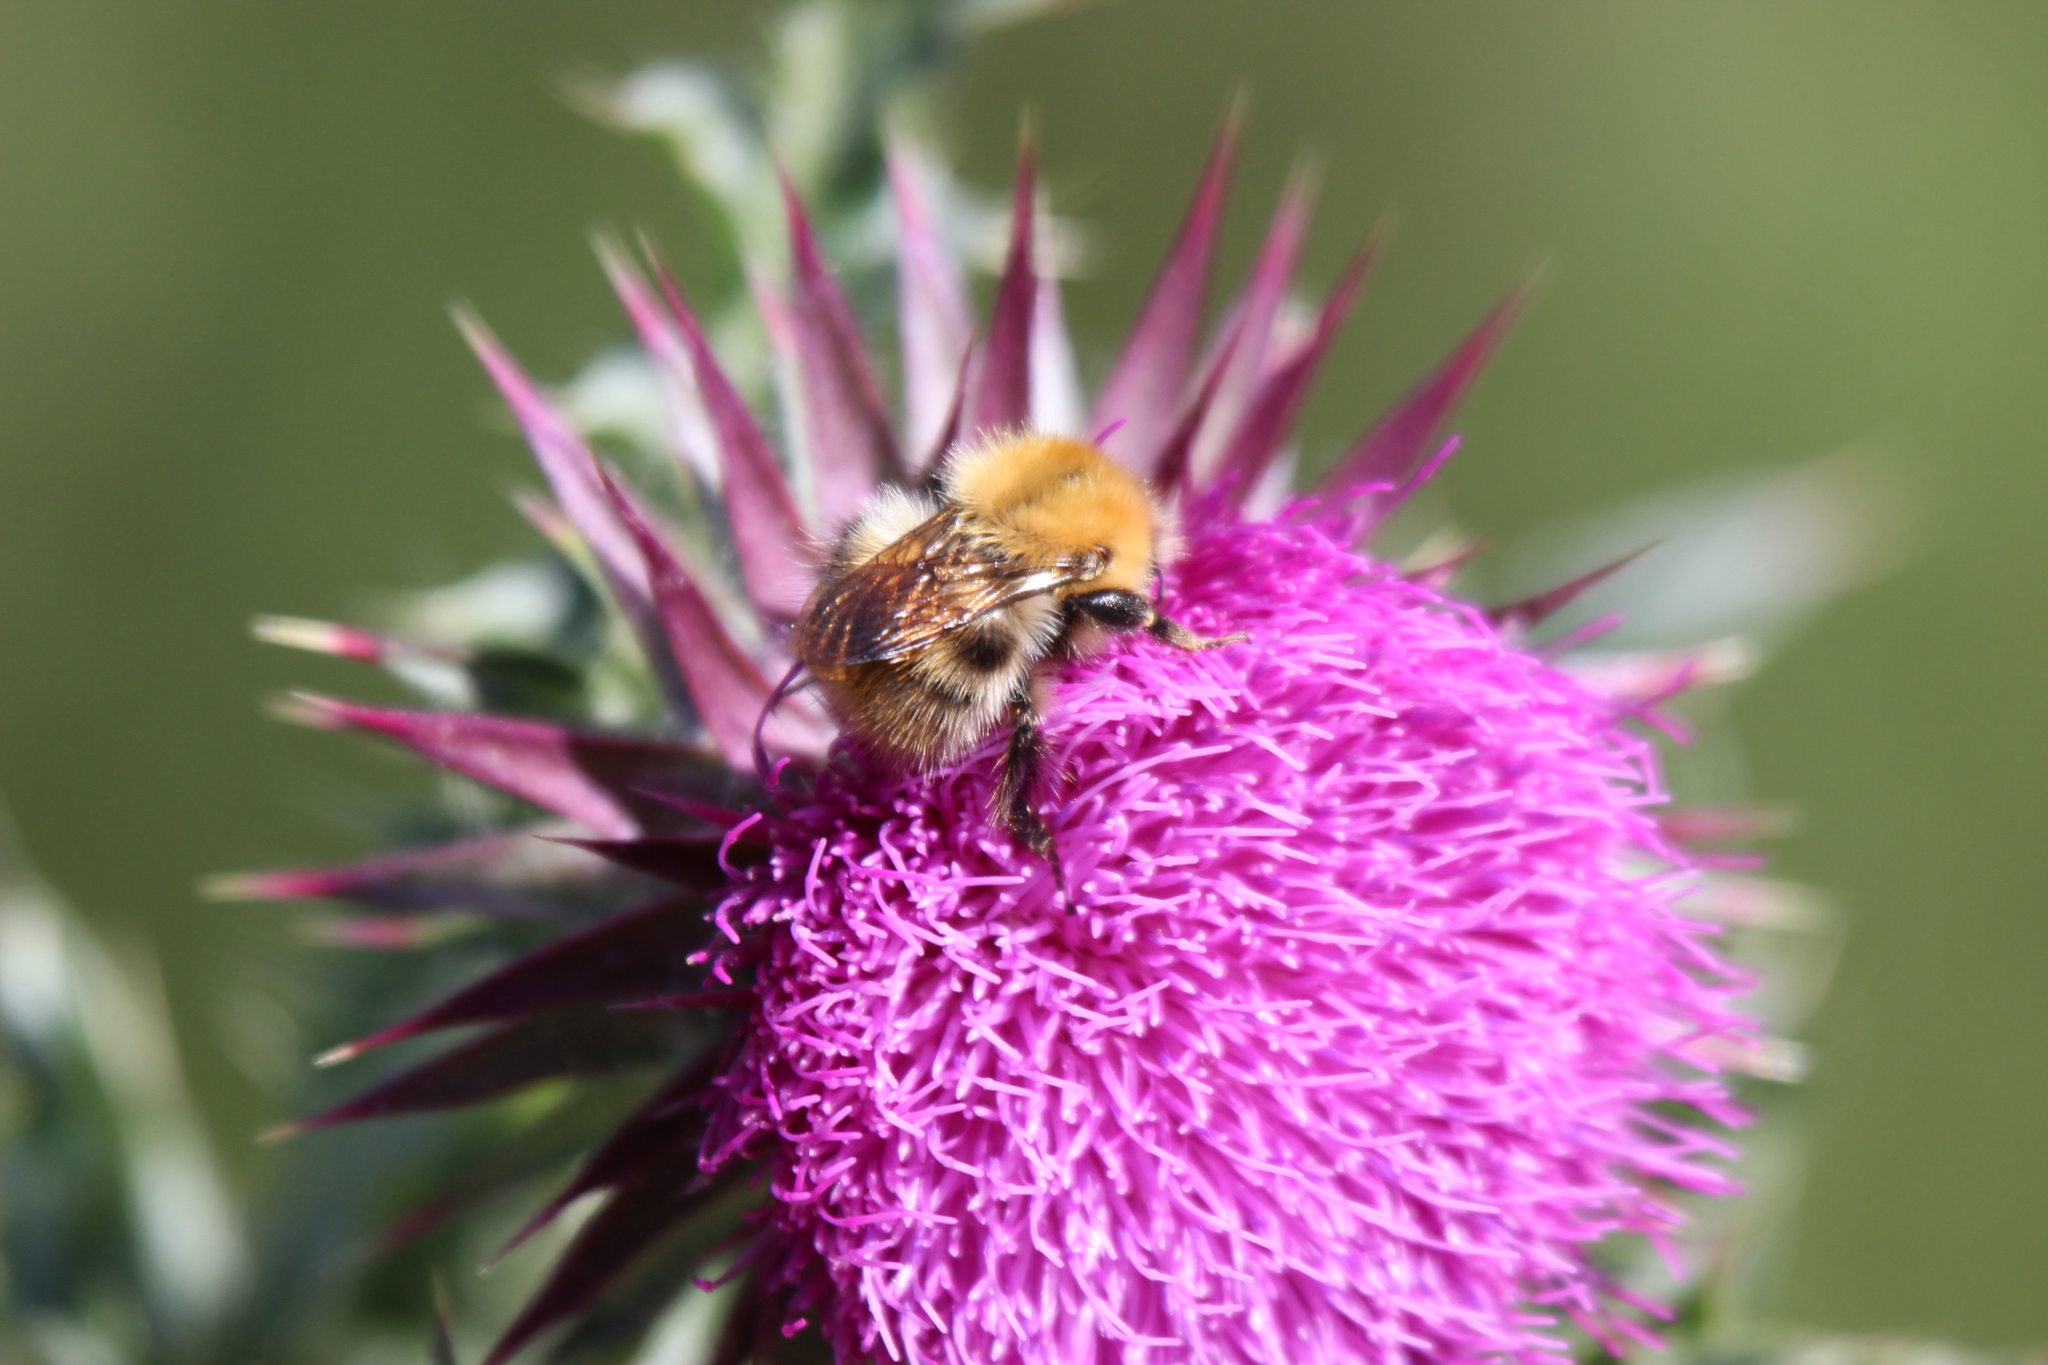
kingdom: Animalia
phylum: Arthropoda
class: Insecta
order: Hymenoptera
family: Apidae
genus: Bombus
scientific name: Bombus pascuorum
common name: Common carder bee
